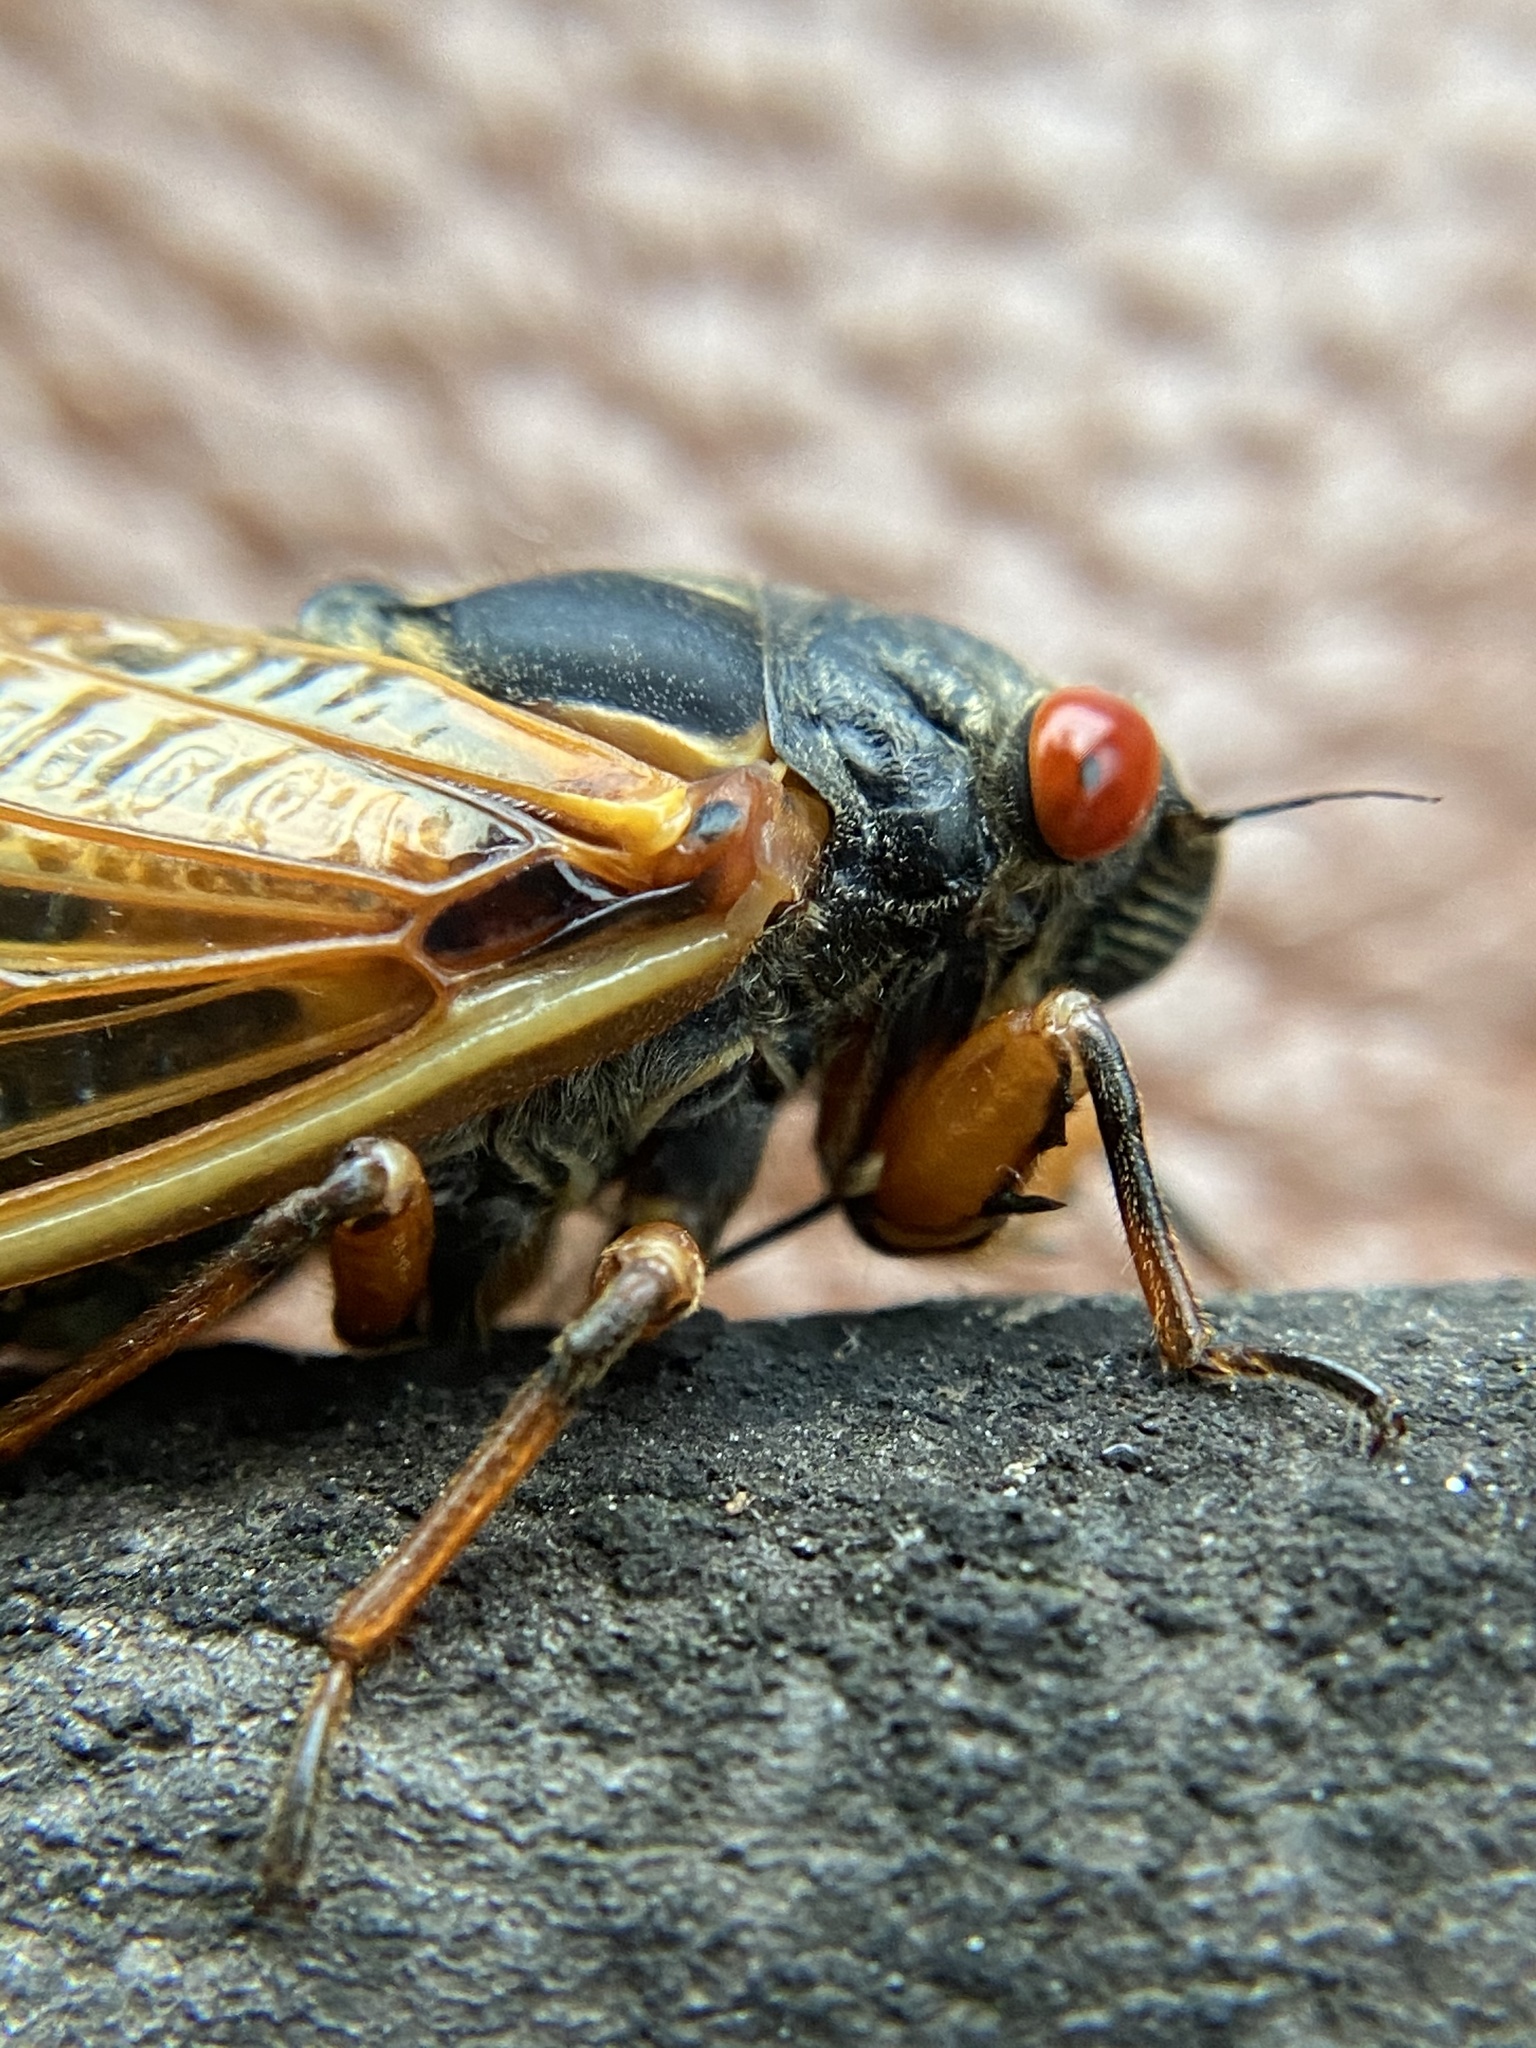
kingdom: Animalia
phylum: Arthropoda
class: Insecta
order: Hemiptera
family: Cicadidae
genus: Magicicada
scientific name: Magicicada cassini
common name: Cassin's 17-year cicada
